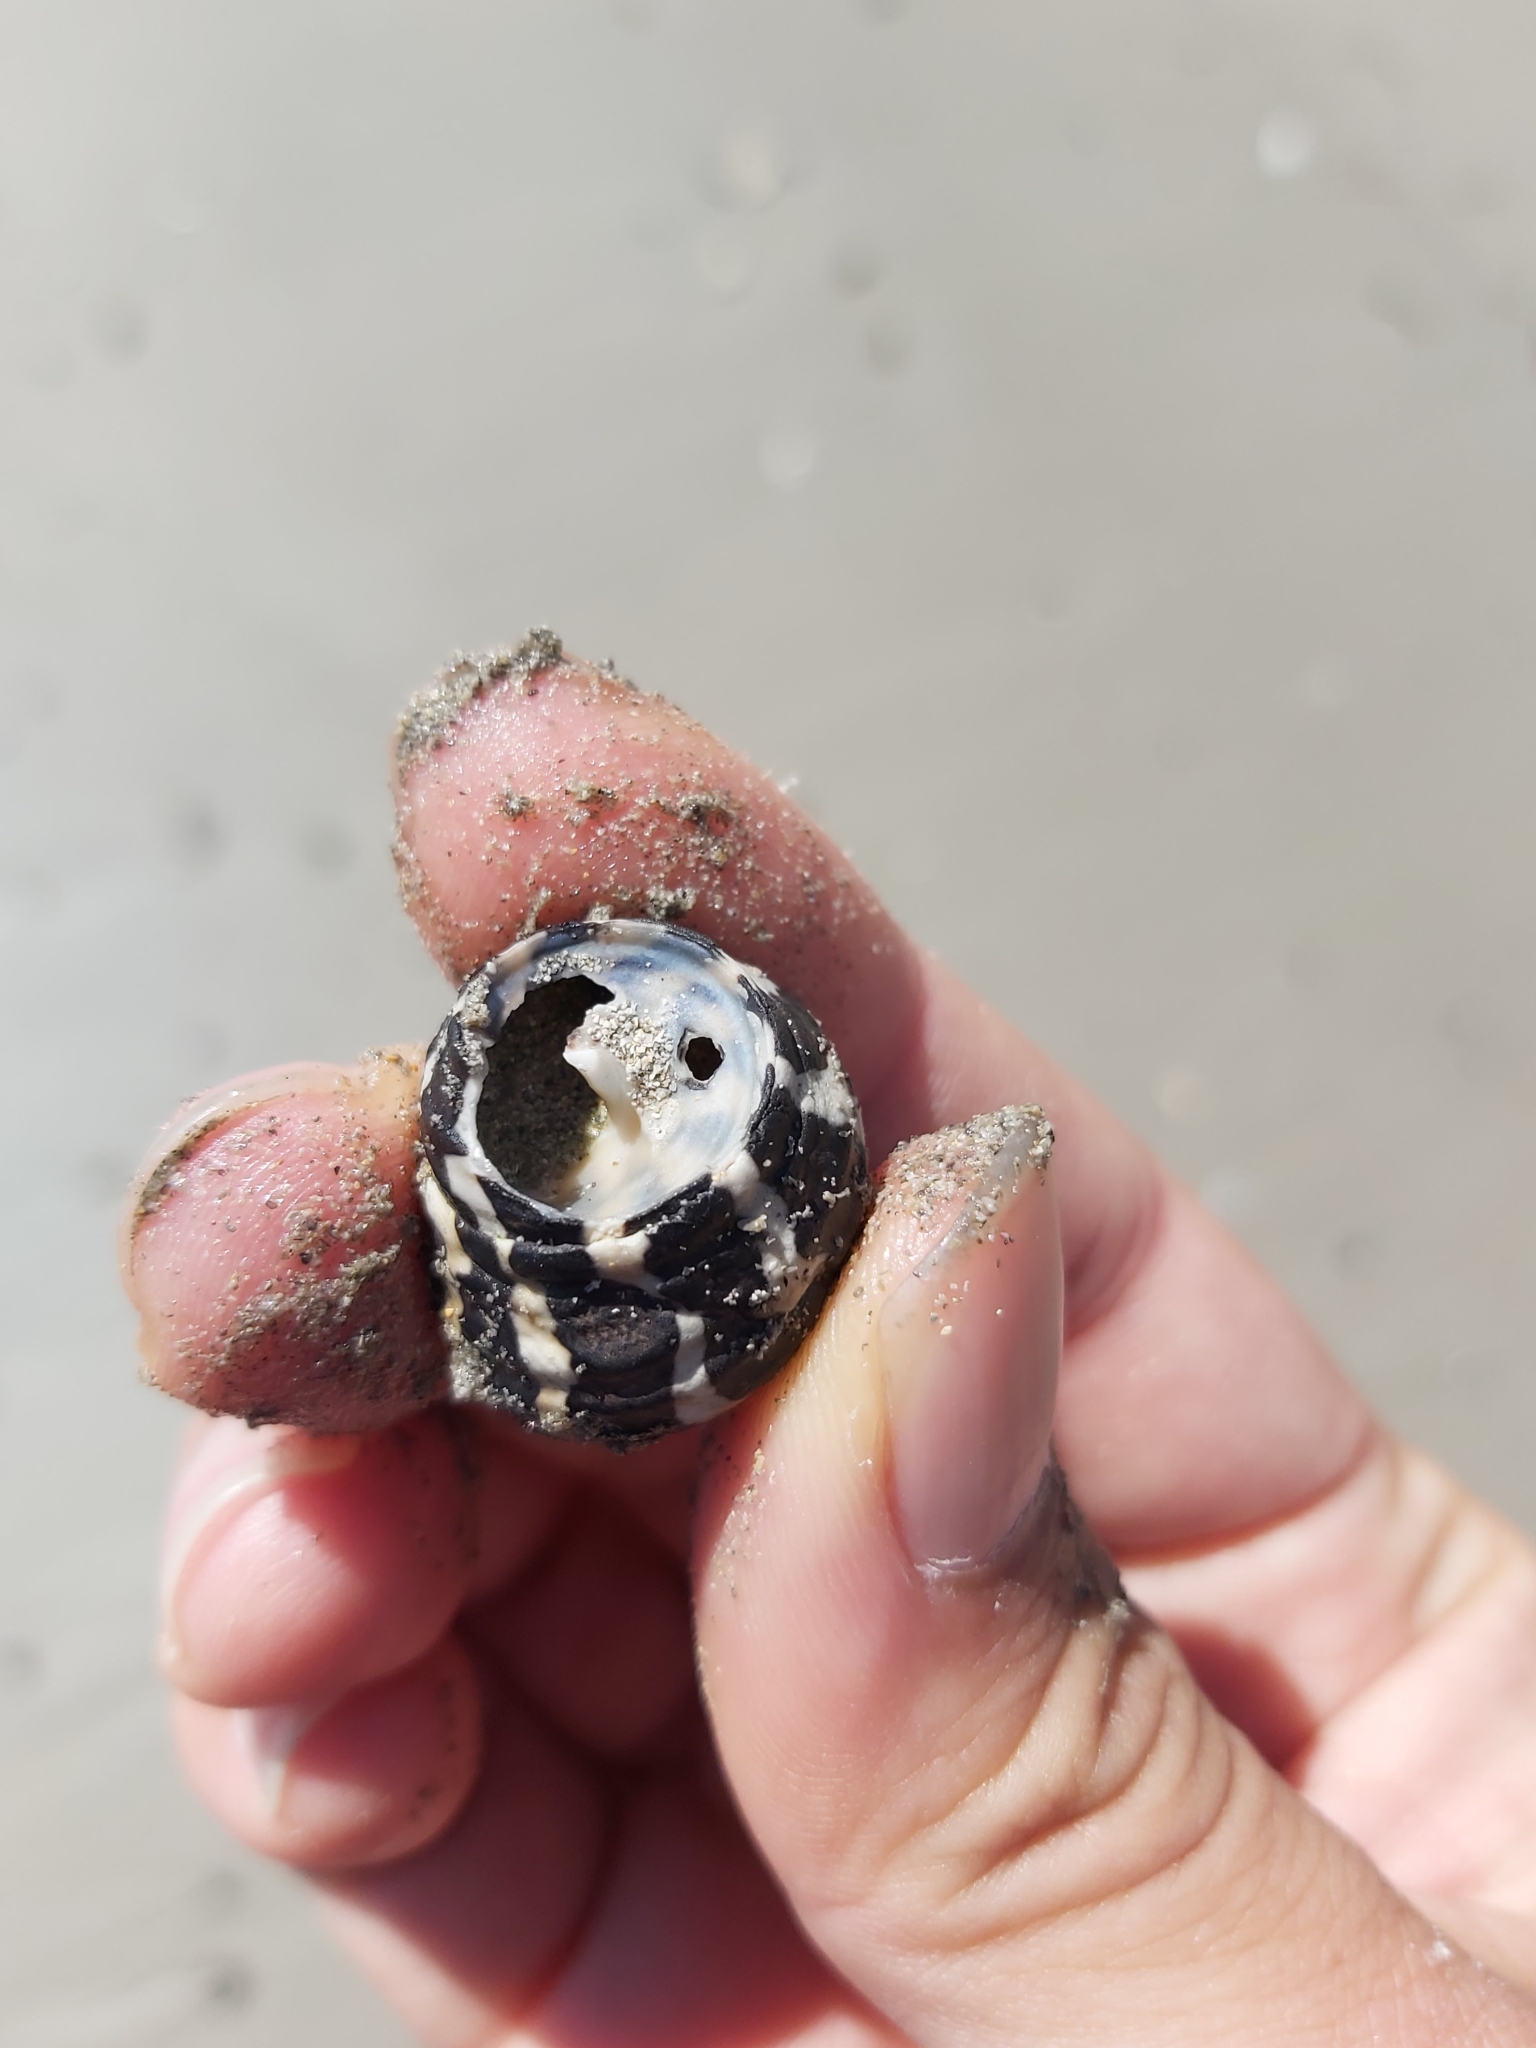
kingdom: Animalia
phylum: Mollusca
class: Gastropoda
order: Trochida
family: Trochidae
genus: Austrocochlea
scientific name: Austrocochlea porcata
